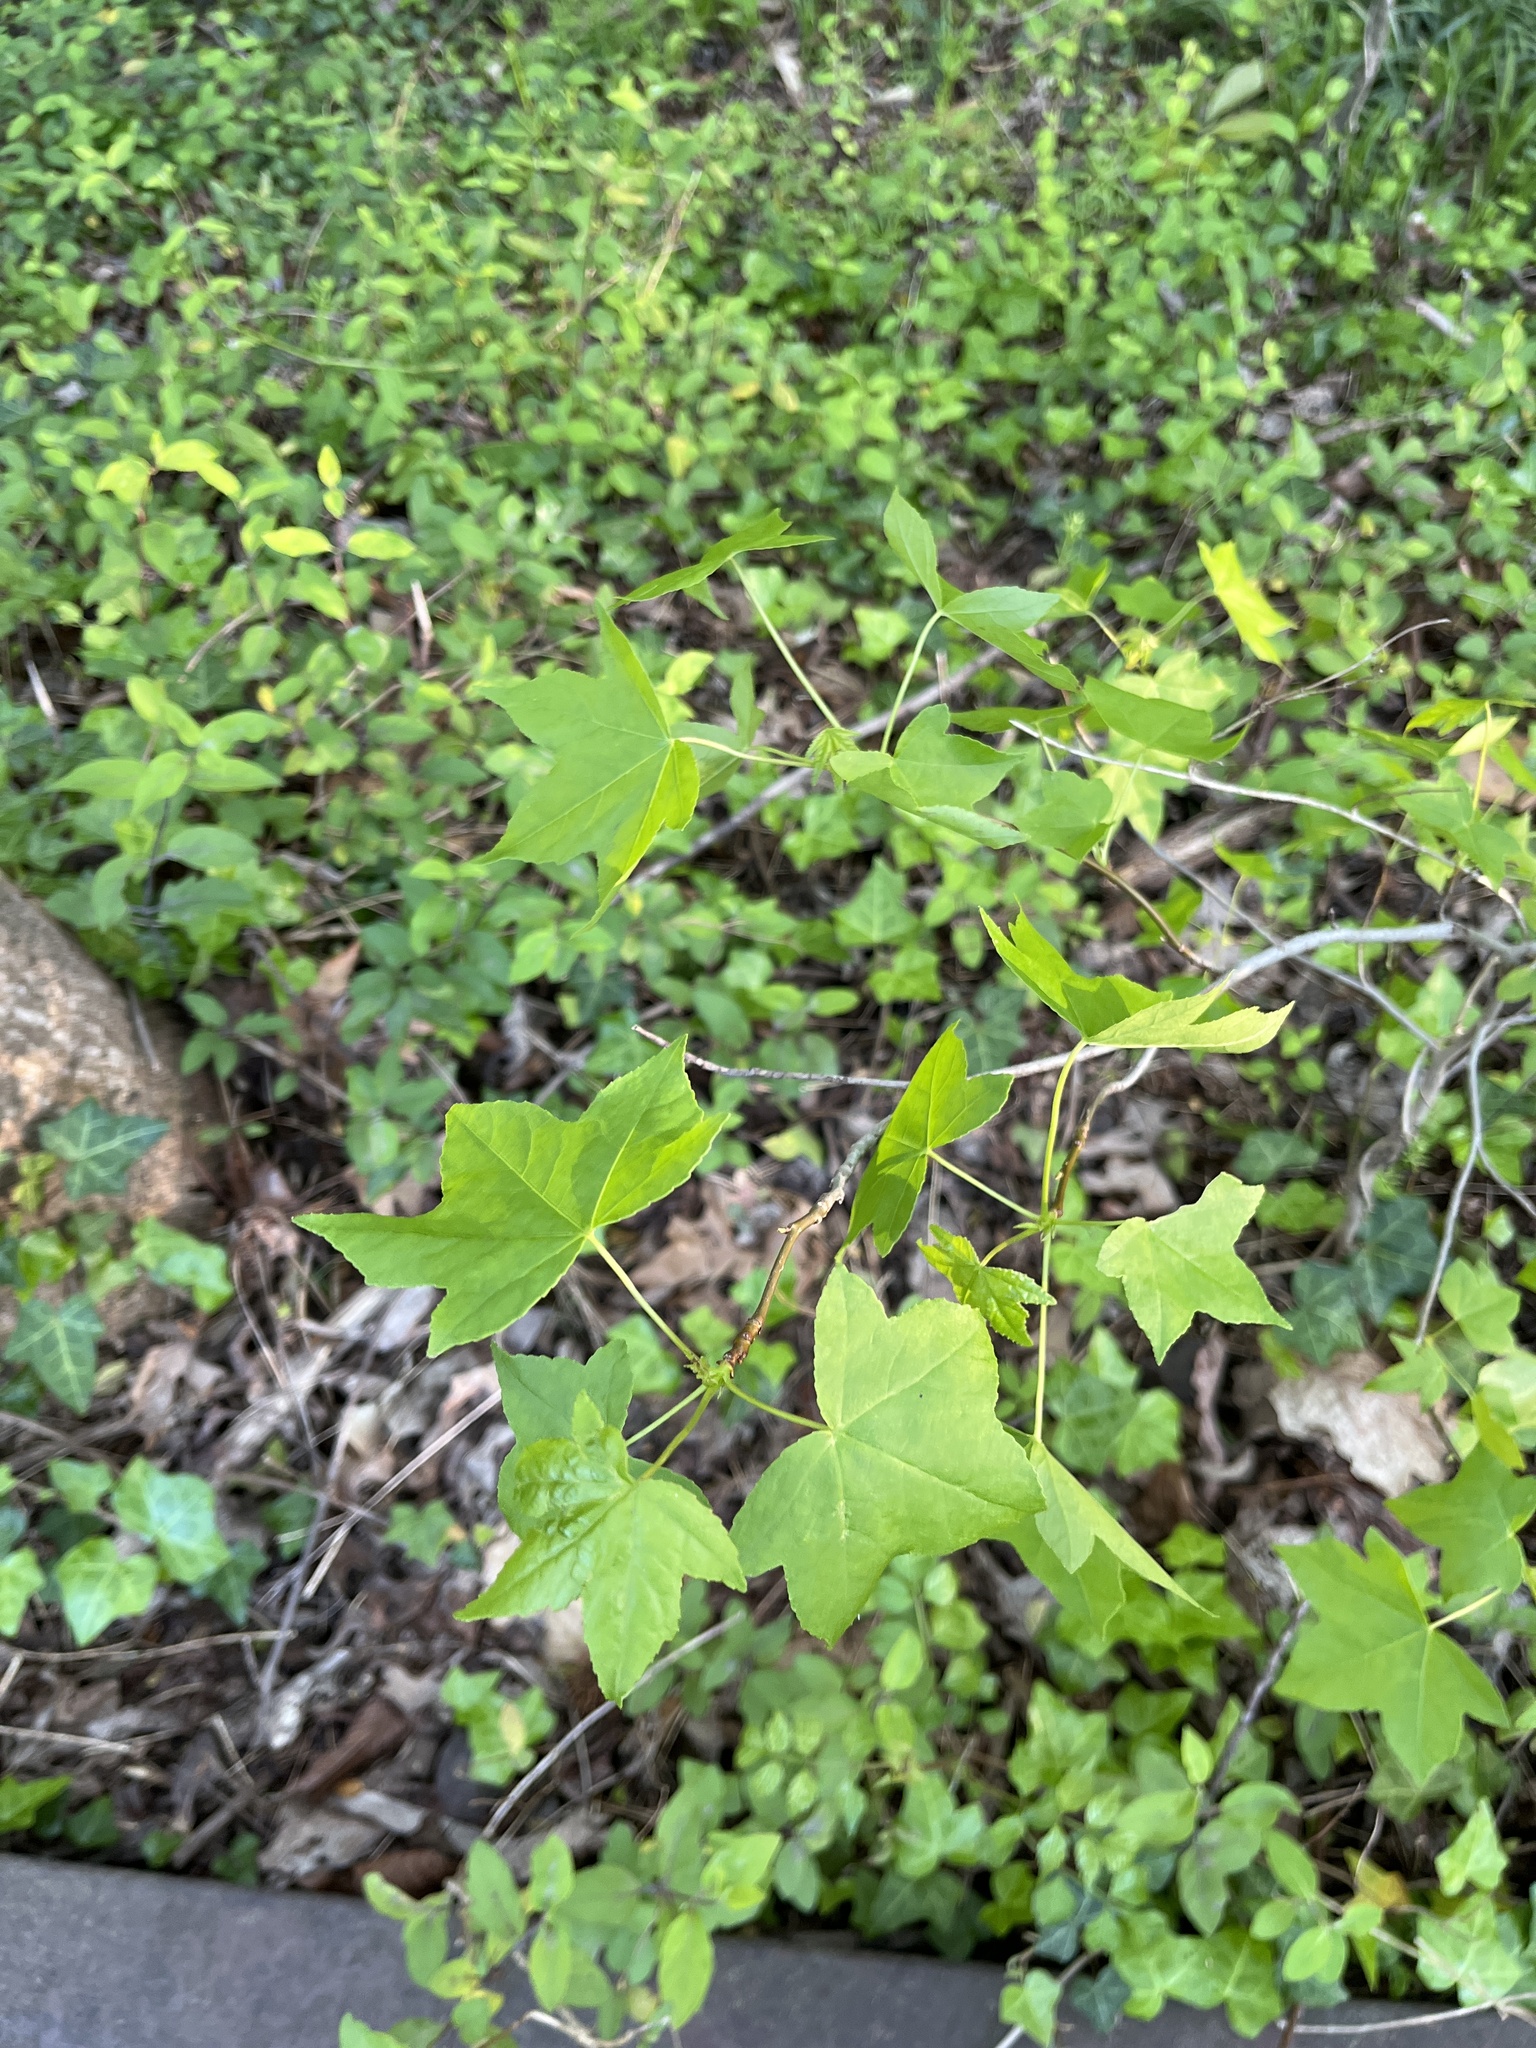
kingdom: Plantae
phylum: Tracheophyta
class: Magnoliopsida
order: Saxifragales
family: Altingiaceae
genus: Liquidambar
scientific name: Liquidambar styraciflua
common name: Sweet gum
